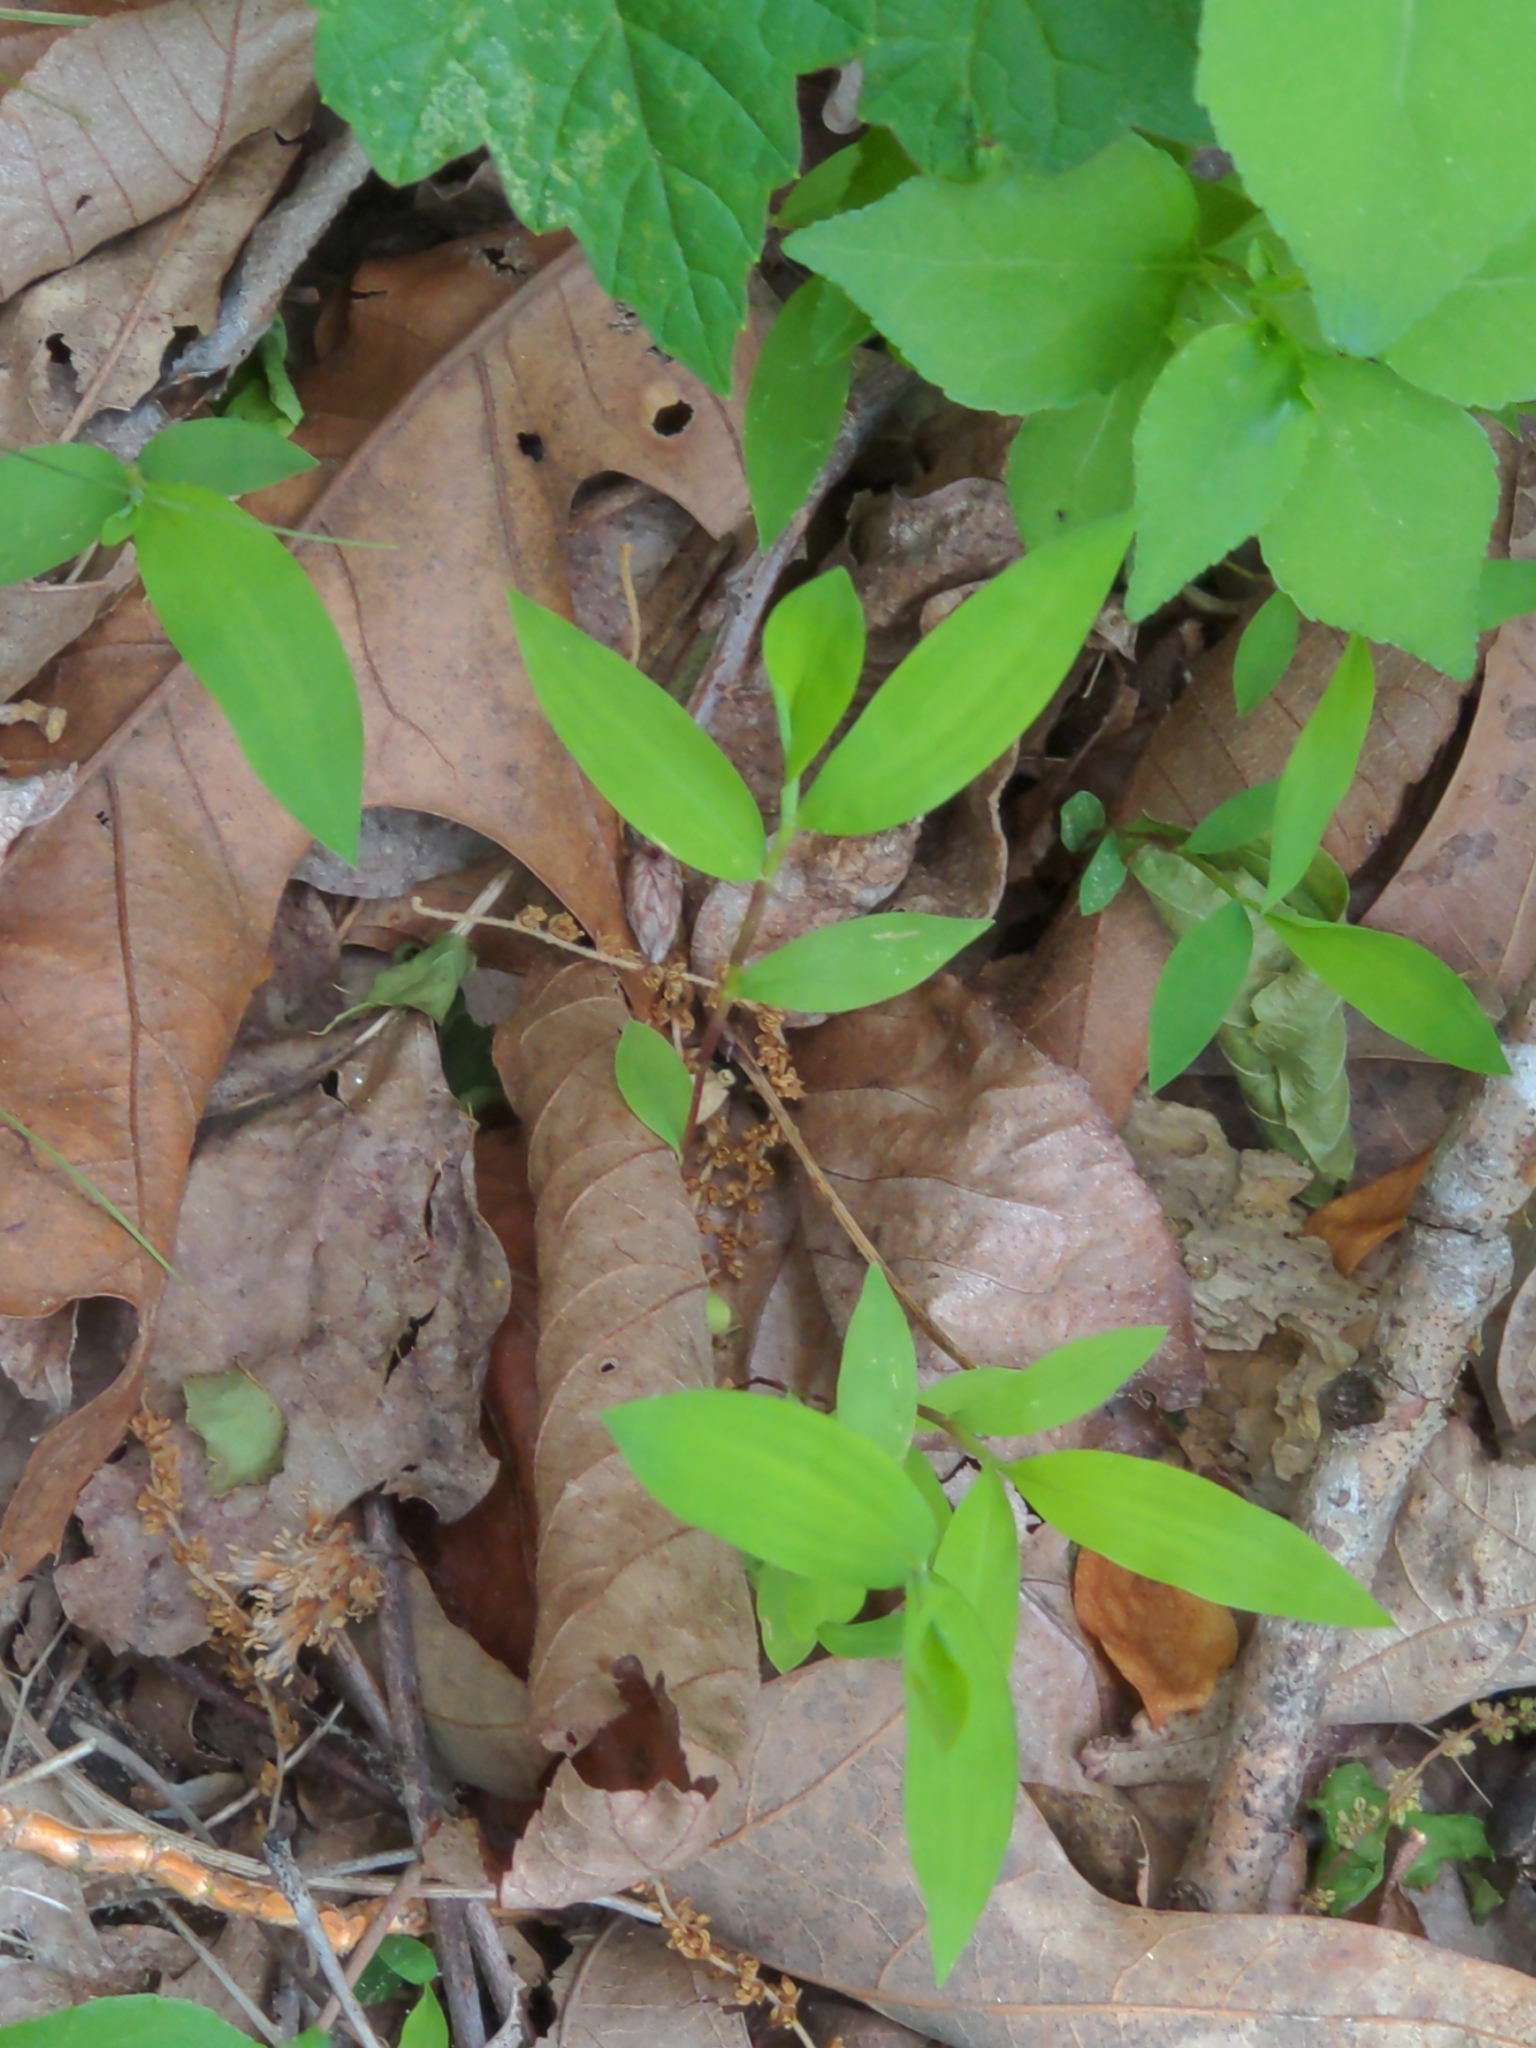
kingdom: Plantae
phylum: Tracheophyta
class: Liliopsida
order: Poales
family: Poaceae
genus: Microstegium
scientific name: Microstegium vimineum
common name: Japanese stiltgrass
